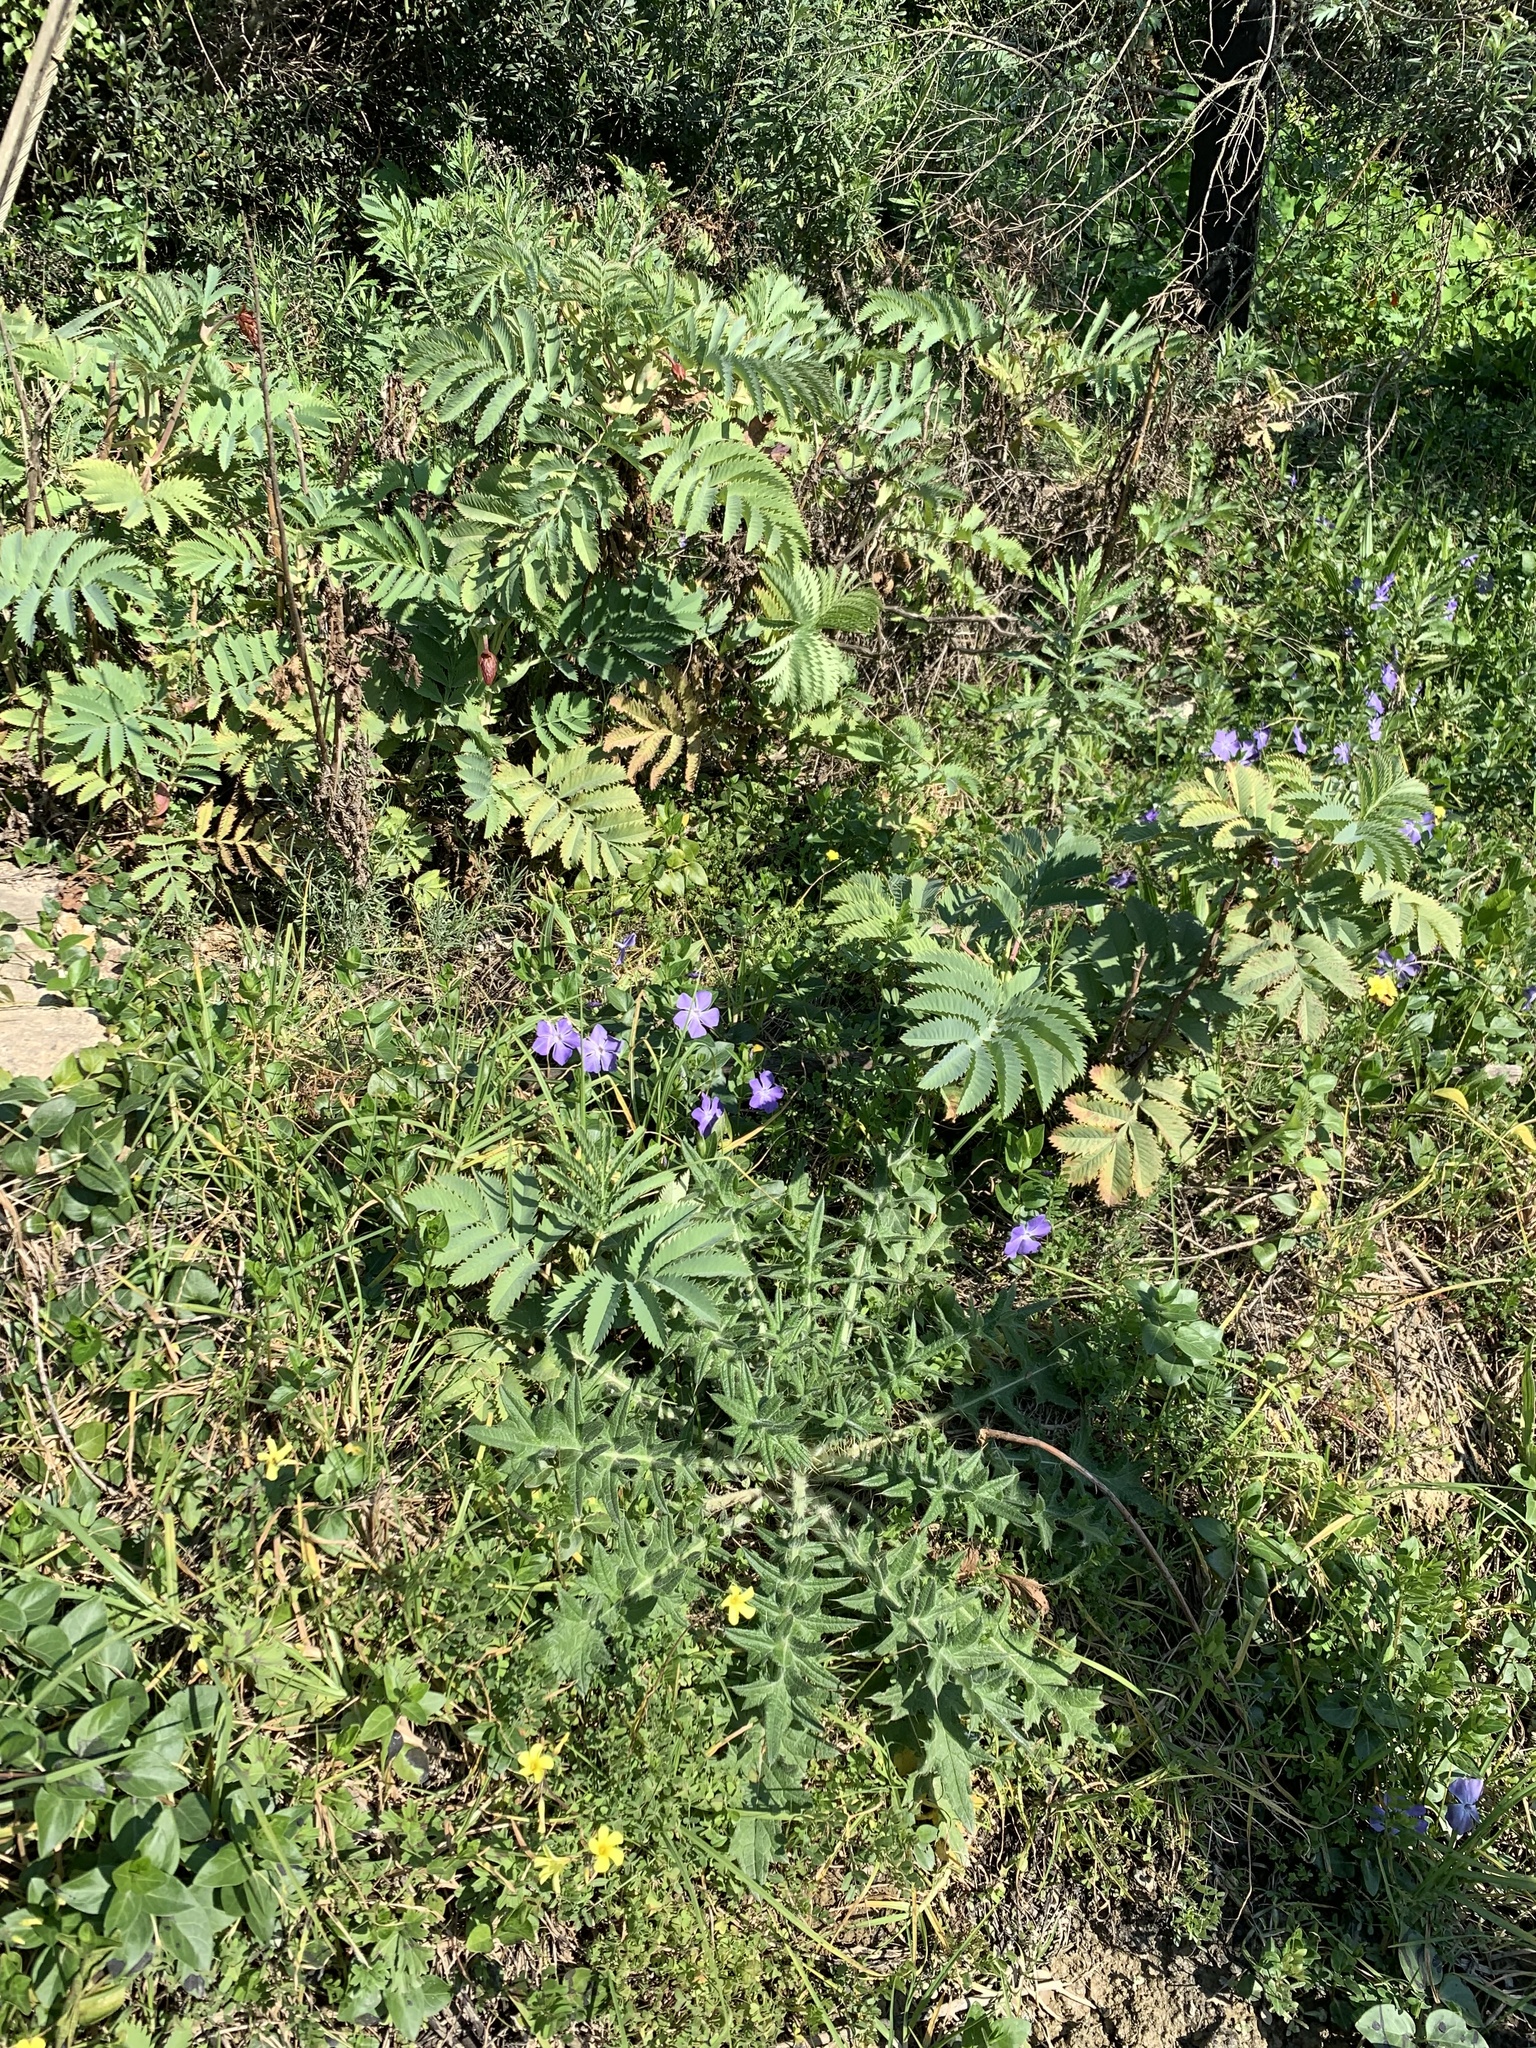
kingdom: Plantae
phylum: Tracheophyta
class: Magnoliopsida
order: Gentianales
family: Apocynaceae
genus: Vinca
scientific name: Vinca major
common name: Greater periwinkle
